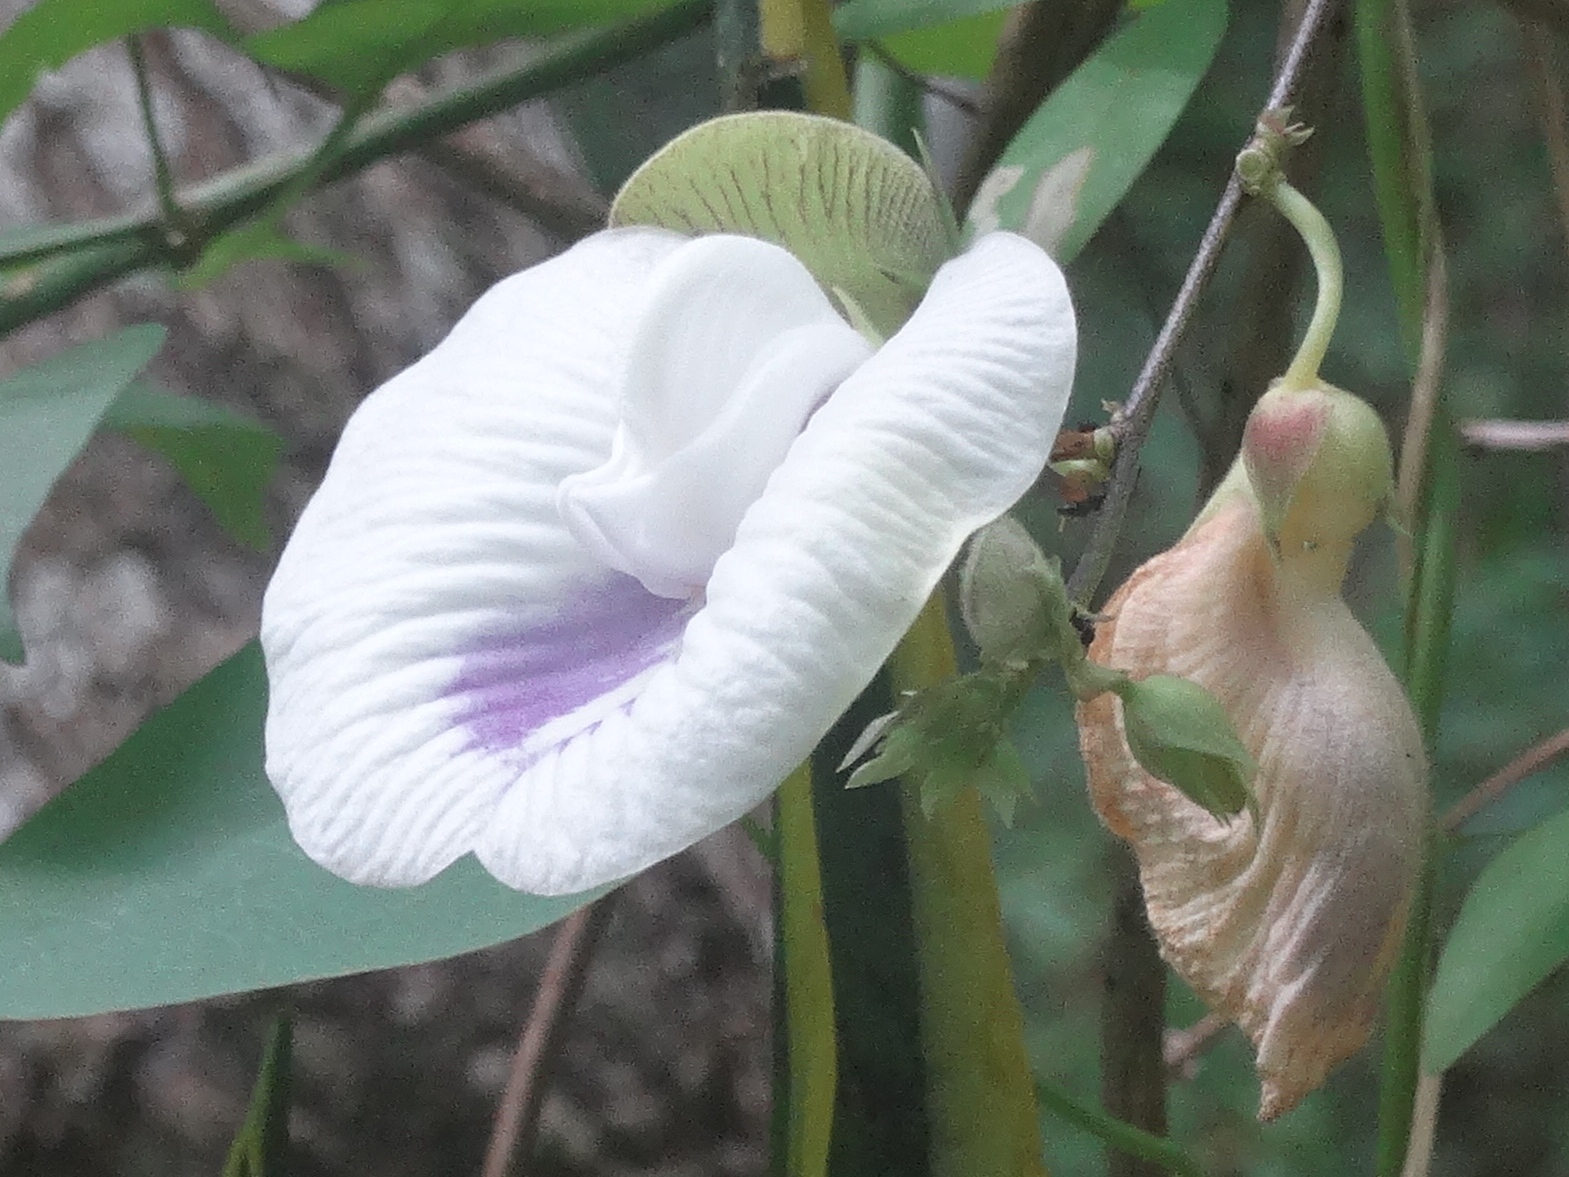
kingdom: Plantae
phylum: Tracheophyta
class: Magnoliopsida
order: Fabales
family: Fabaceae
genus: Centrosema
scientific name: Centrosema
